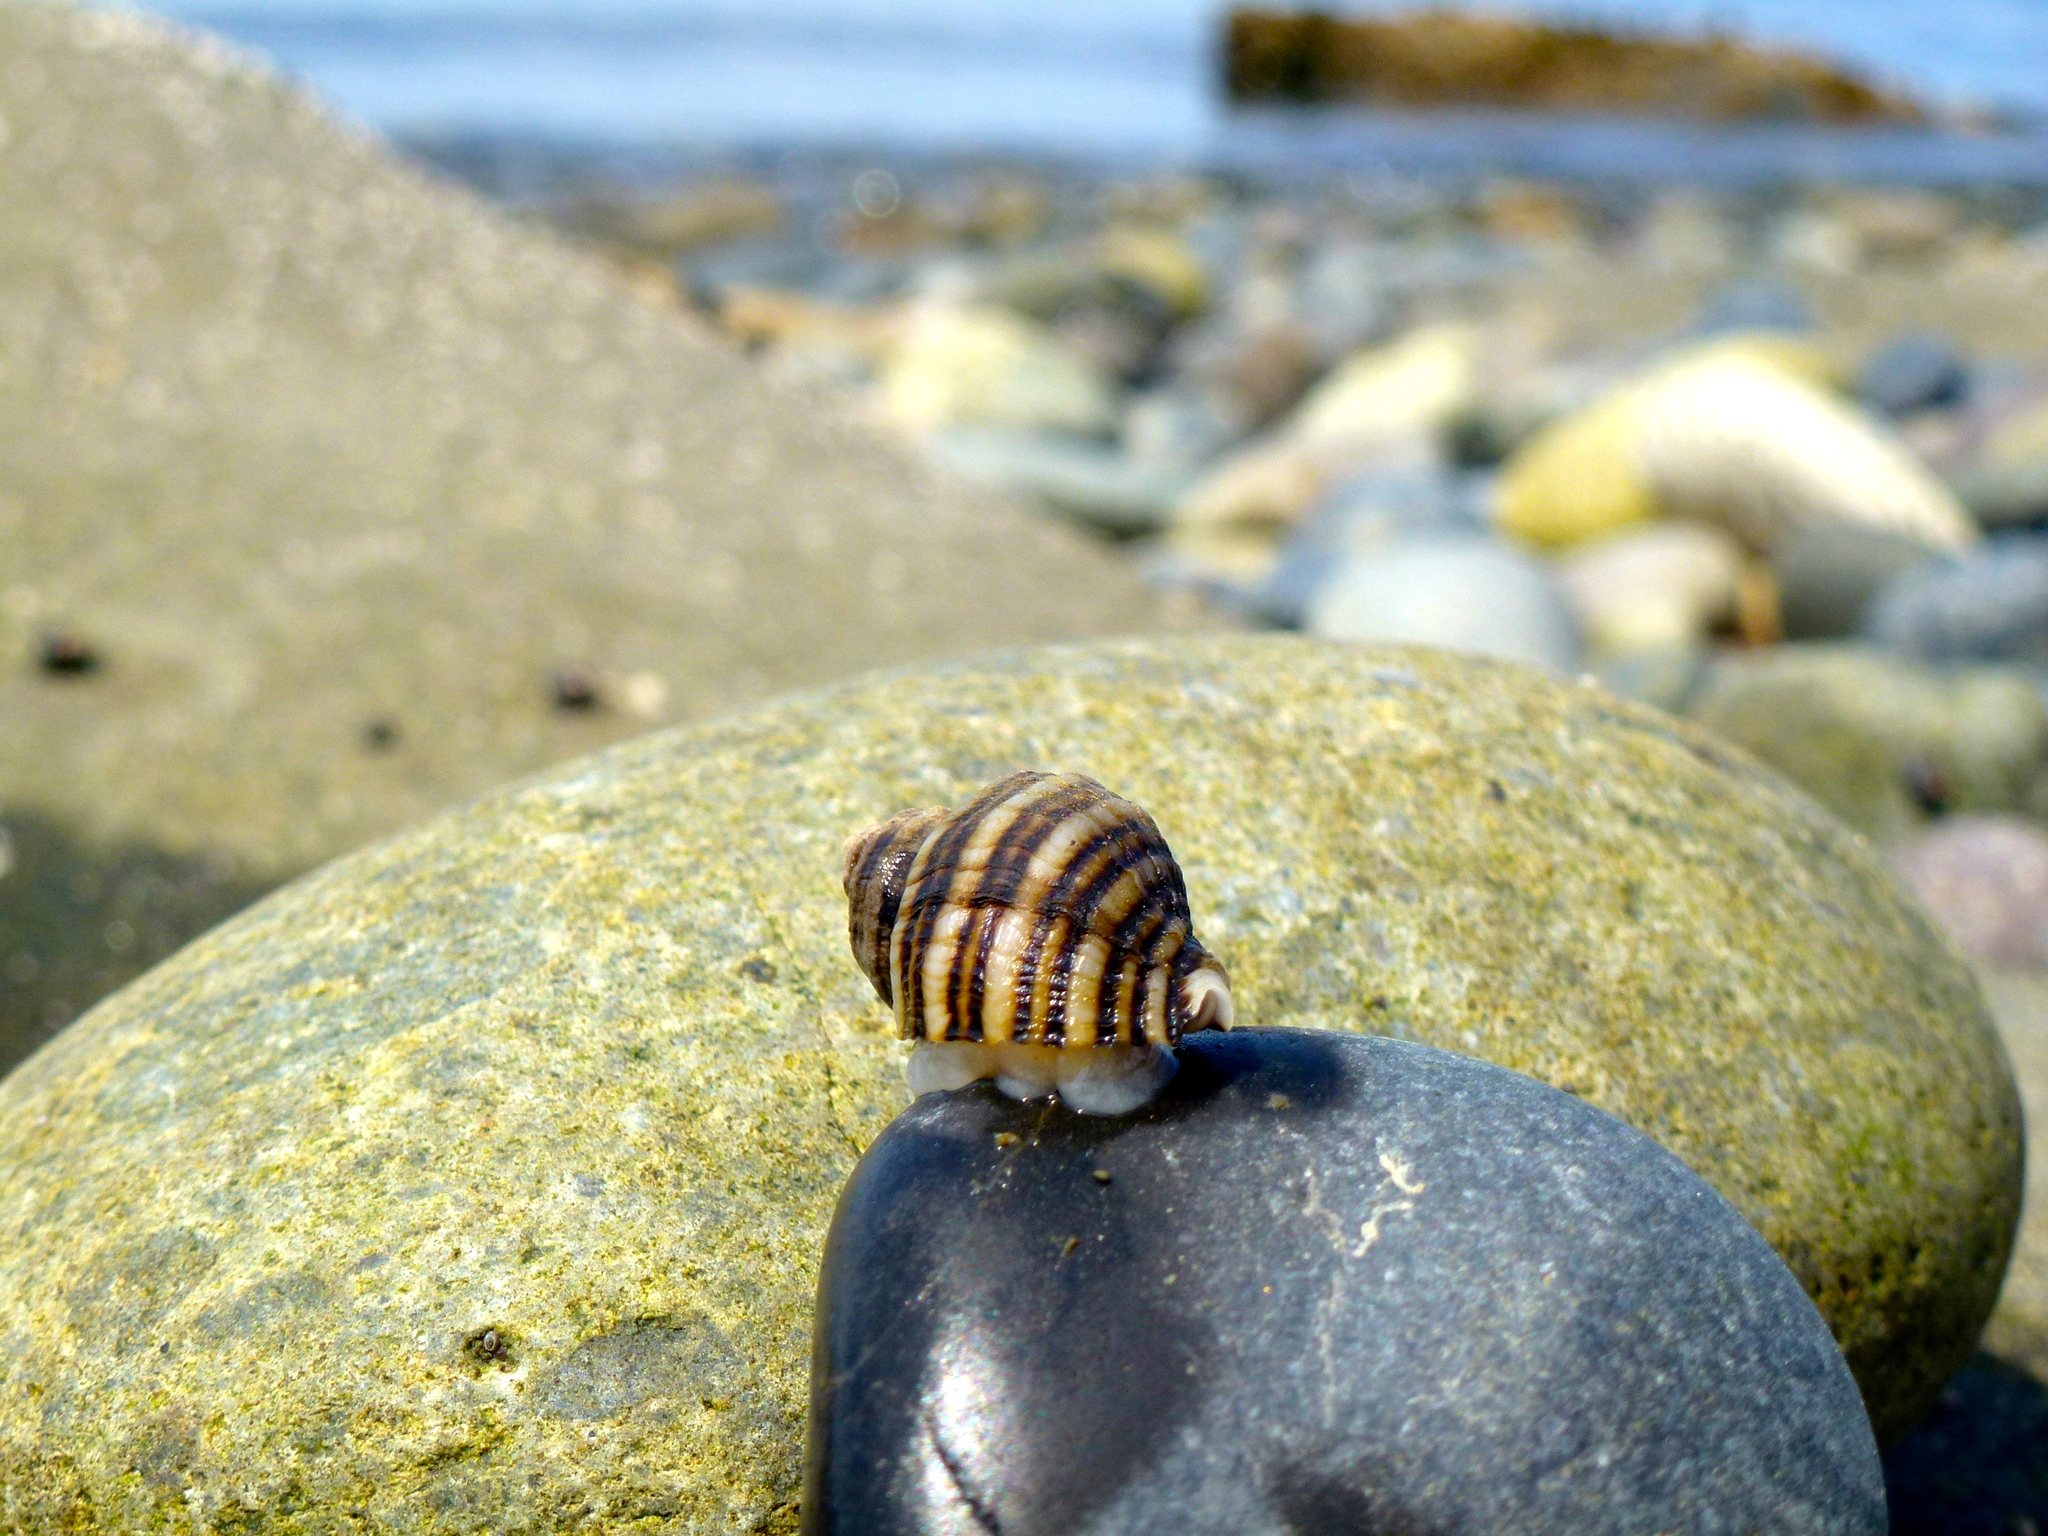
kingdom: Animalia
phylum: Mollusca
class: Gastropoda
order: Neogastropoda
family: Muricidae
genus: Nucella
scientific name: Nucella ostrina
